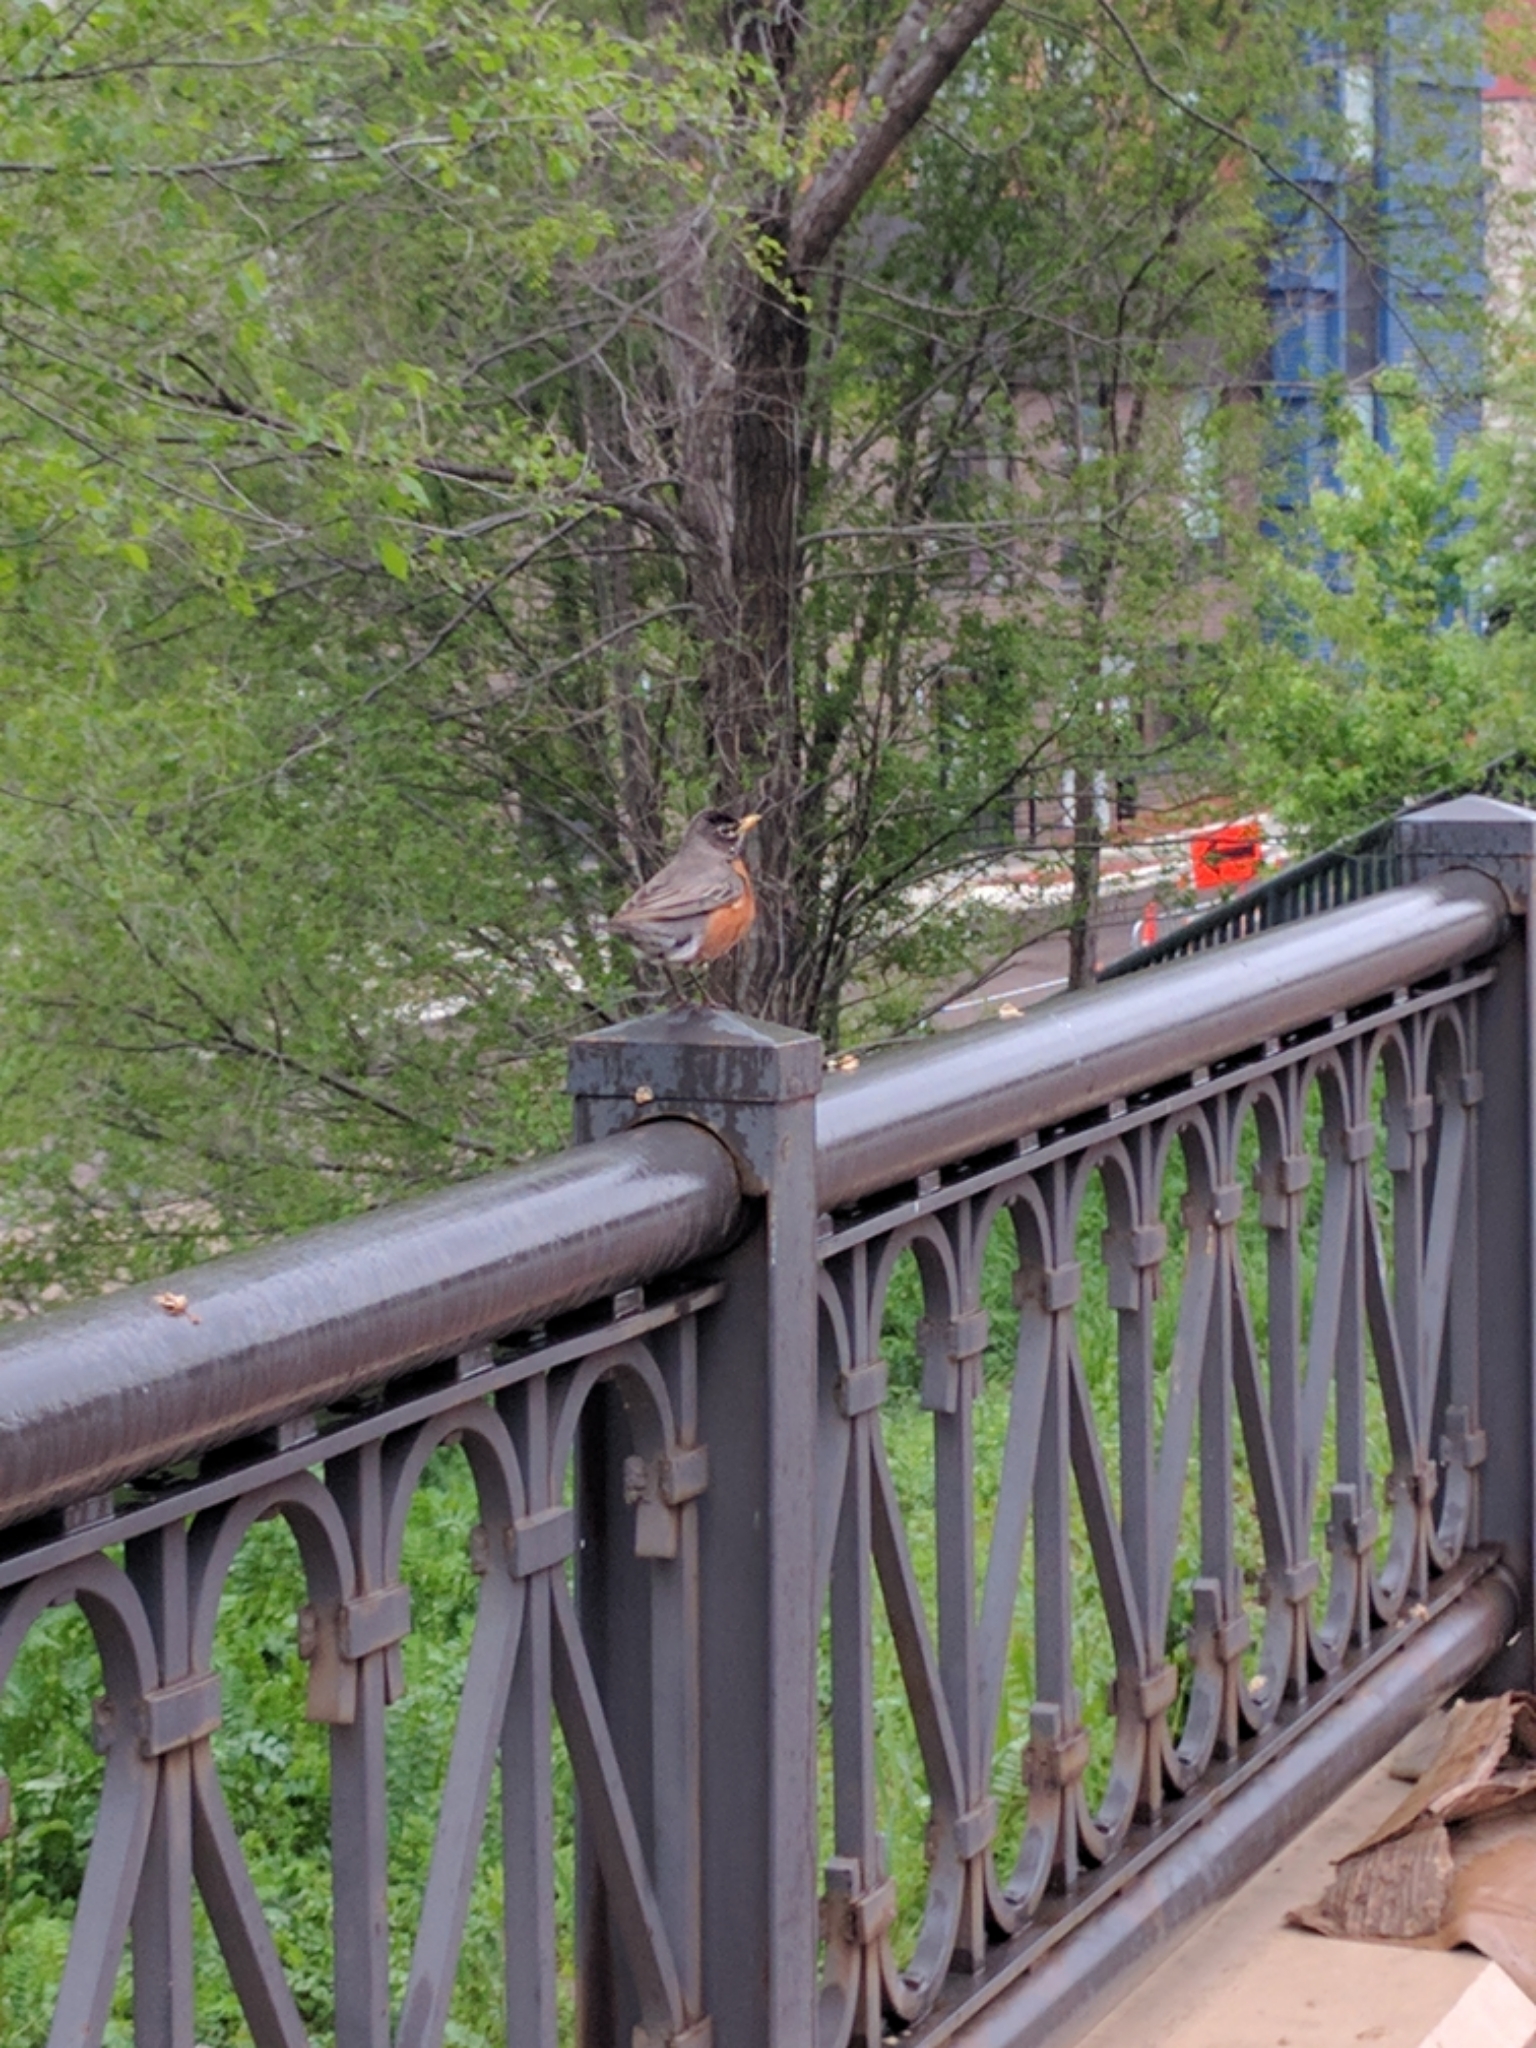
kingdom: Animalia
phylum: Chordata
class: Aves
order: Passeriformes
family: Turdidae
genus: Turdus
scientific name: Turdus migratorius
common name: American robin
